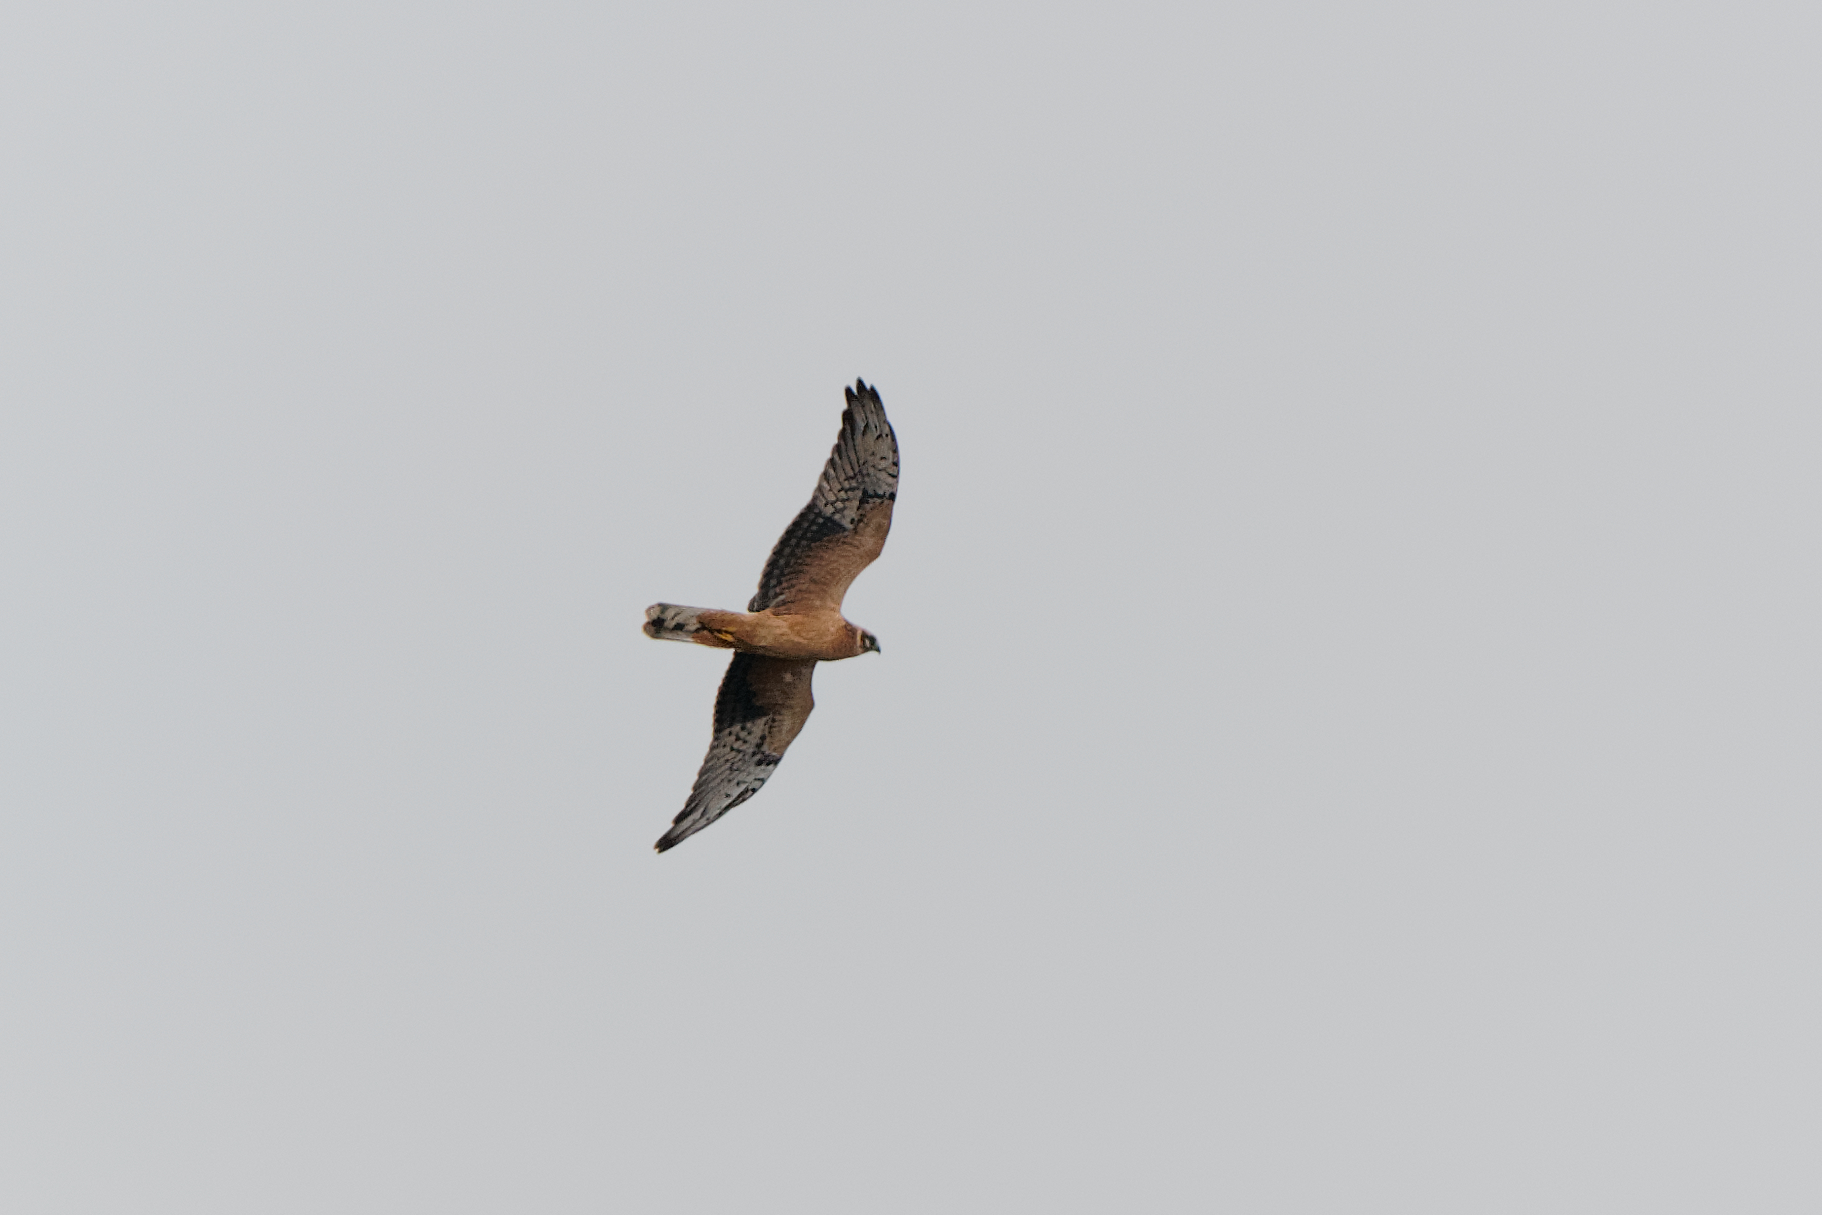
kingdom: Animalia
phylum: Chordata
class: Aves
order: Accipitriformes
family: Accipitridae
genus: Circus
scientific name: Circus macrourus
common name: Pallid harrier
